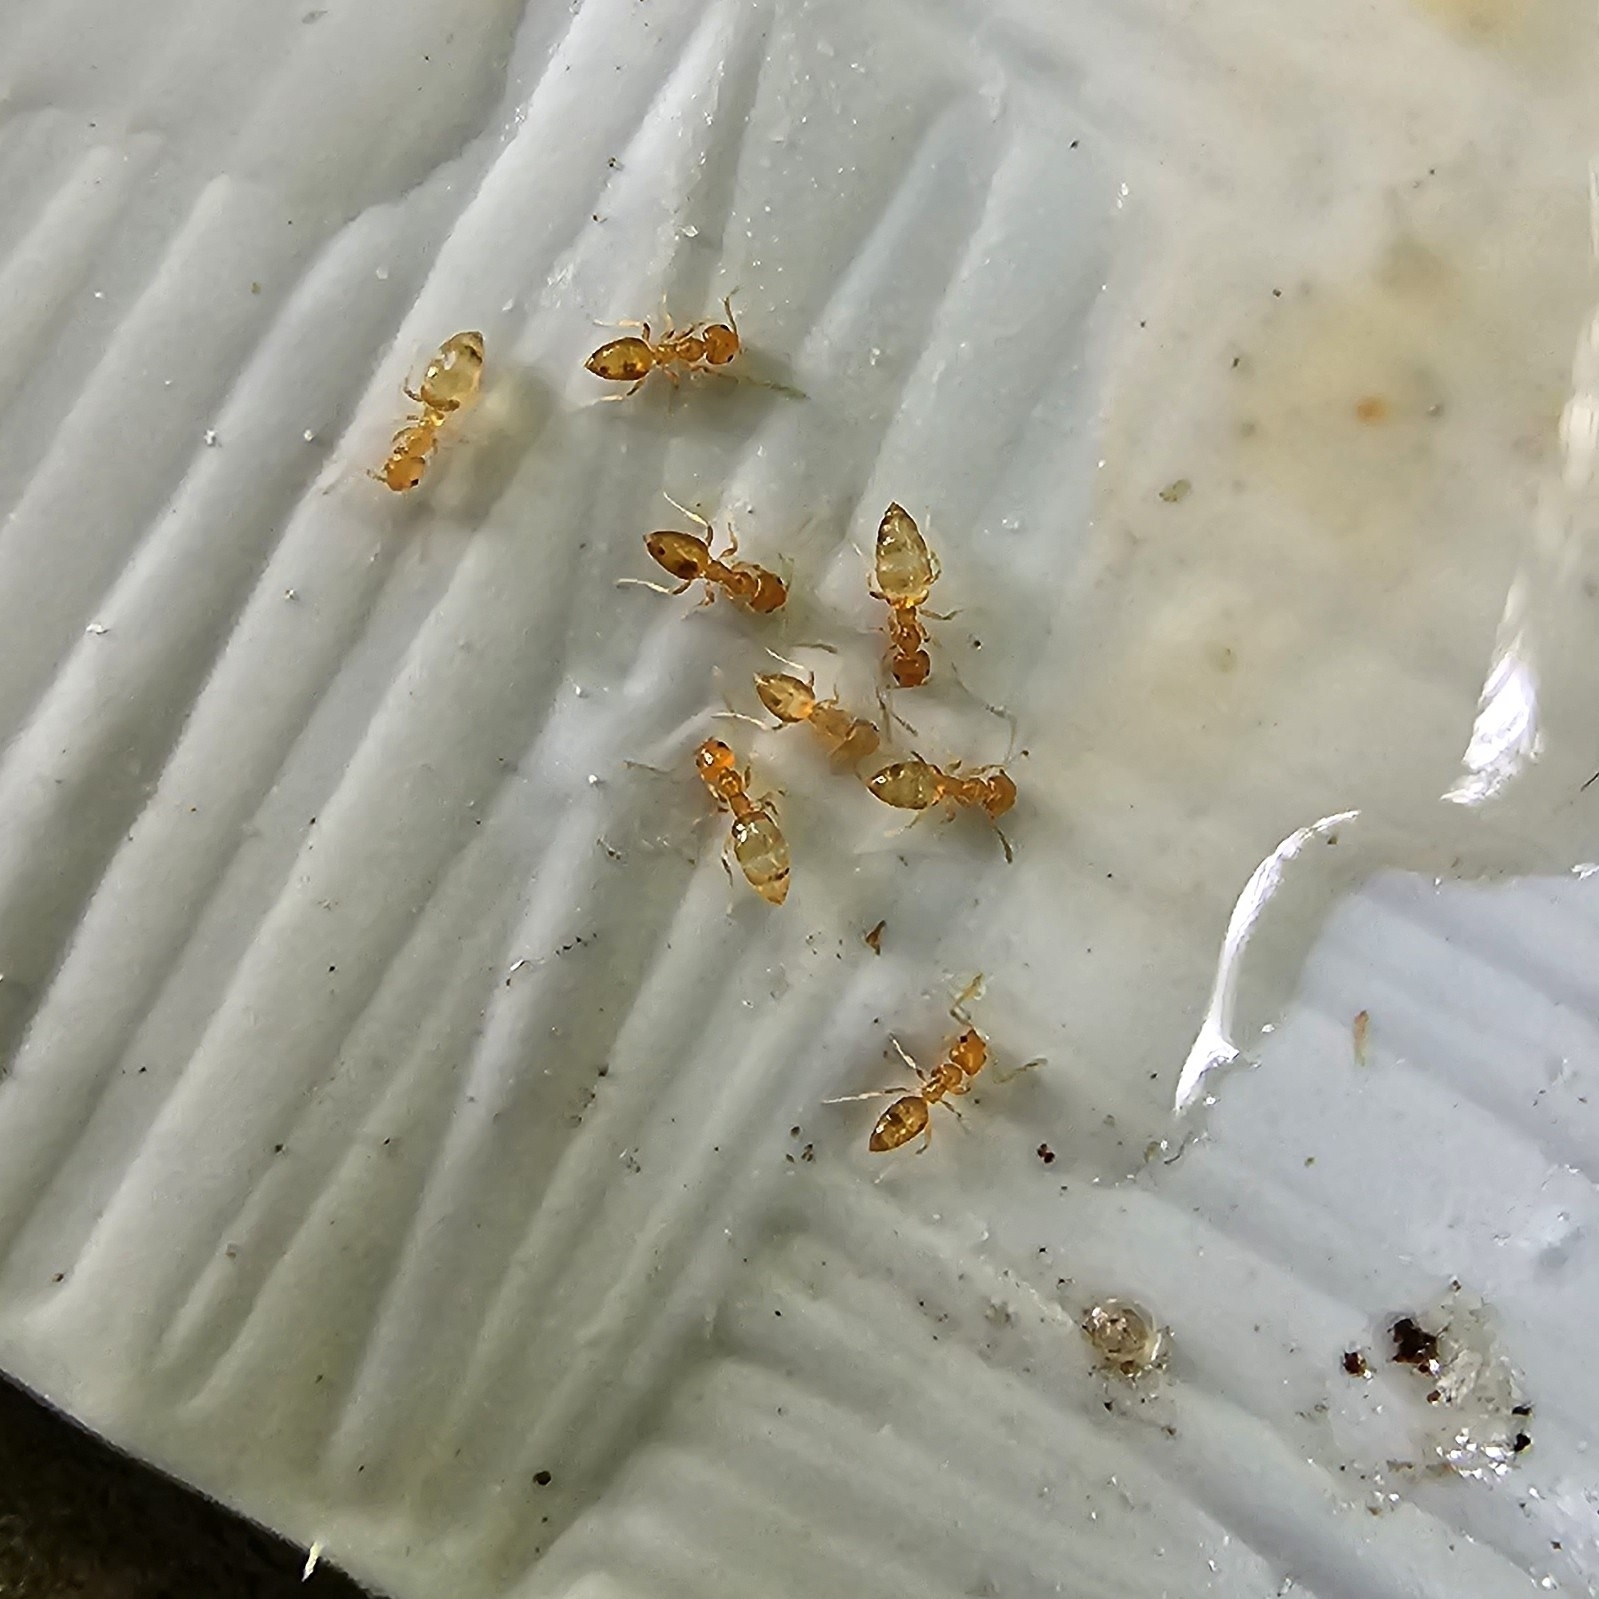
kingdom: Animalia
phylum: Arthropoda
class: Insecta
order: Hymenoptera
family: Formicidae
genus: Plagiolepis
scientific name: Plagiolepis alluaudi
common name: Little yellow ant
